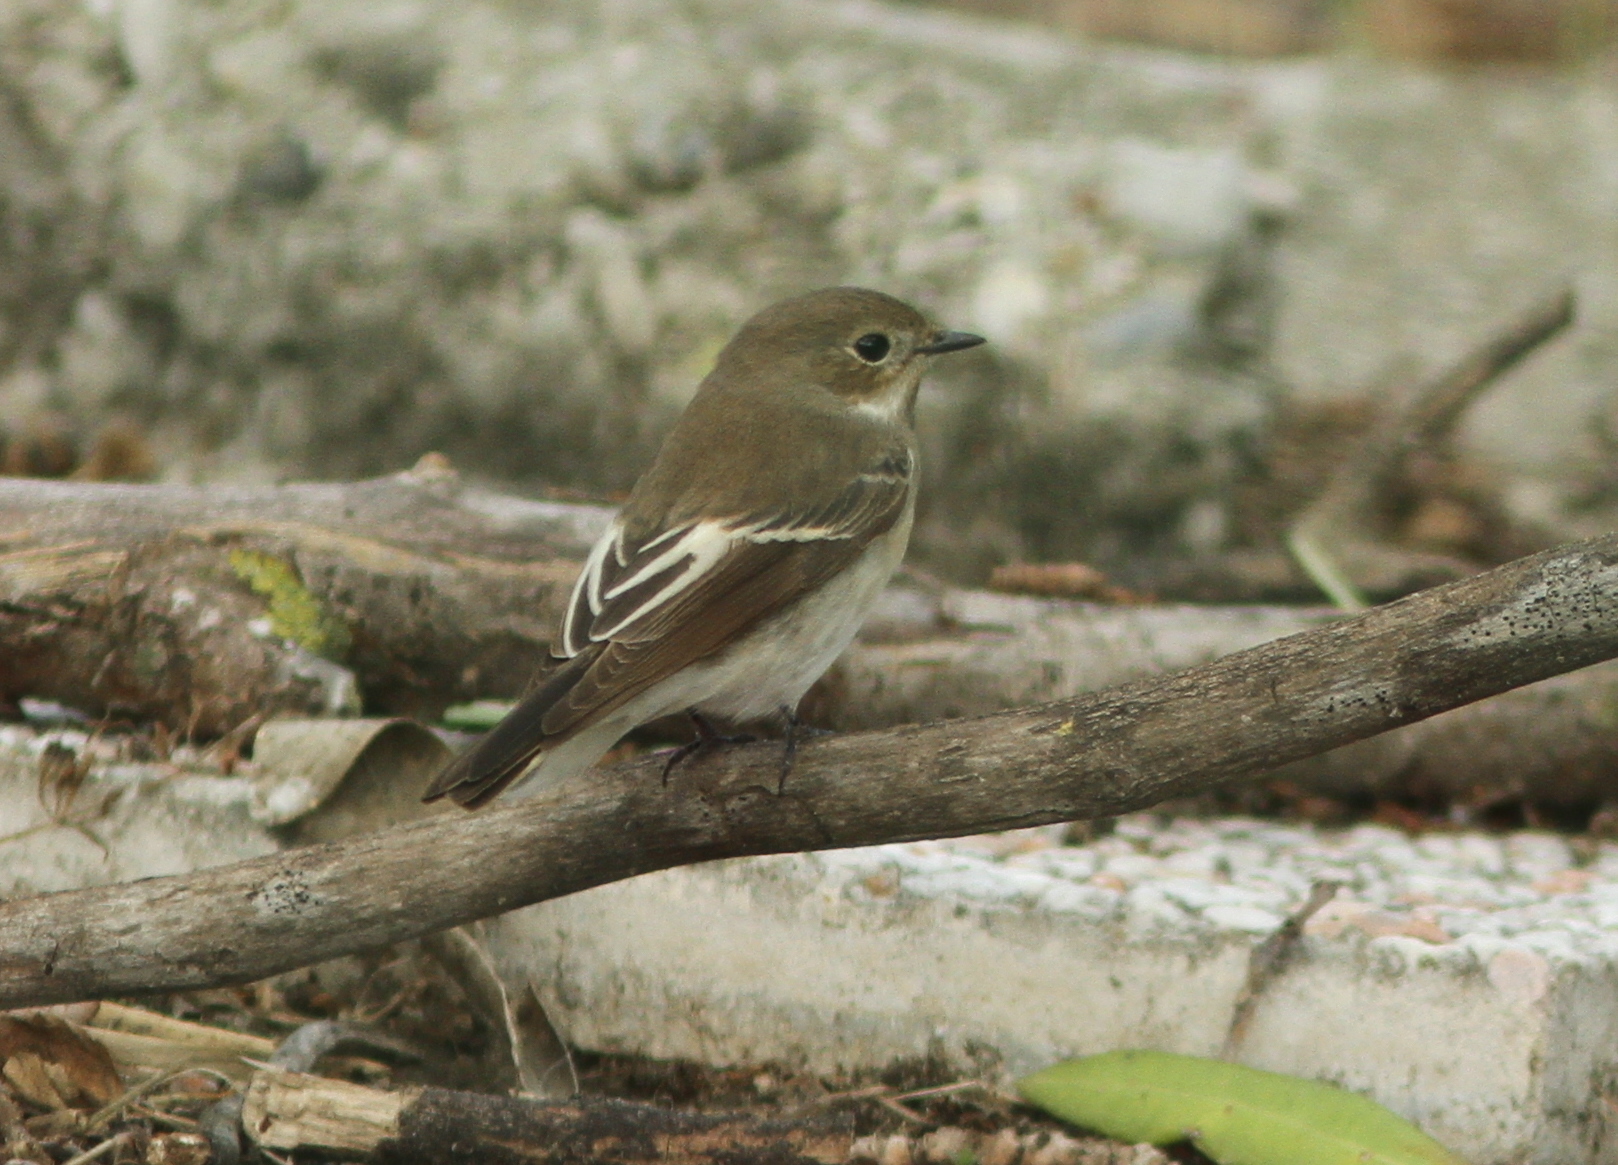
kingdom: Animalia
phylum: Chordata
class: Aves
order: Passeriformes
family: Muscicapidae
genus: Ficedula
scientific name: Ficedula hypoleuca
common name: European pied flycatcher
